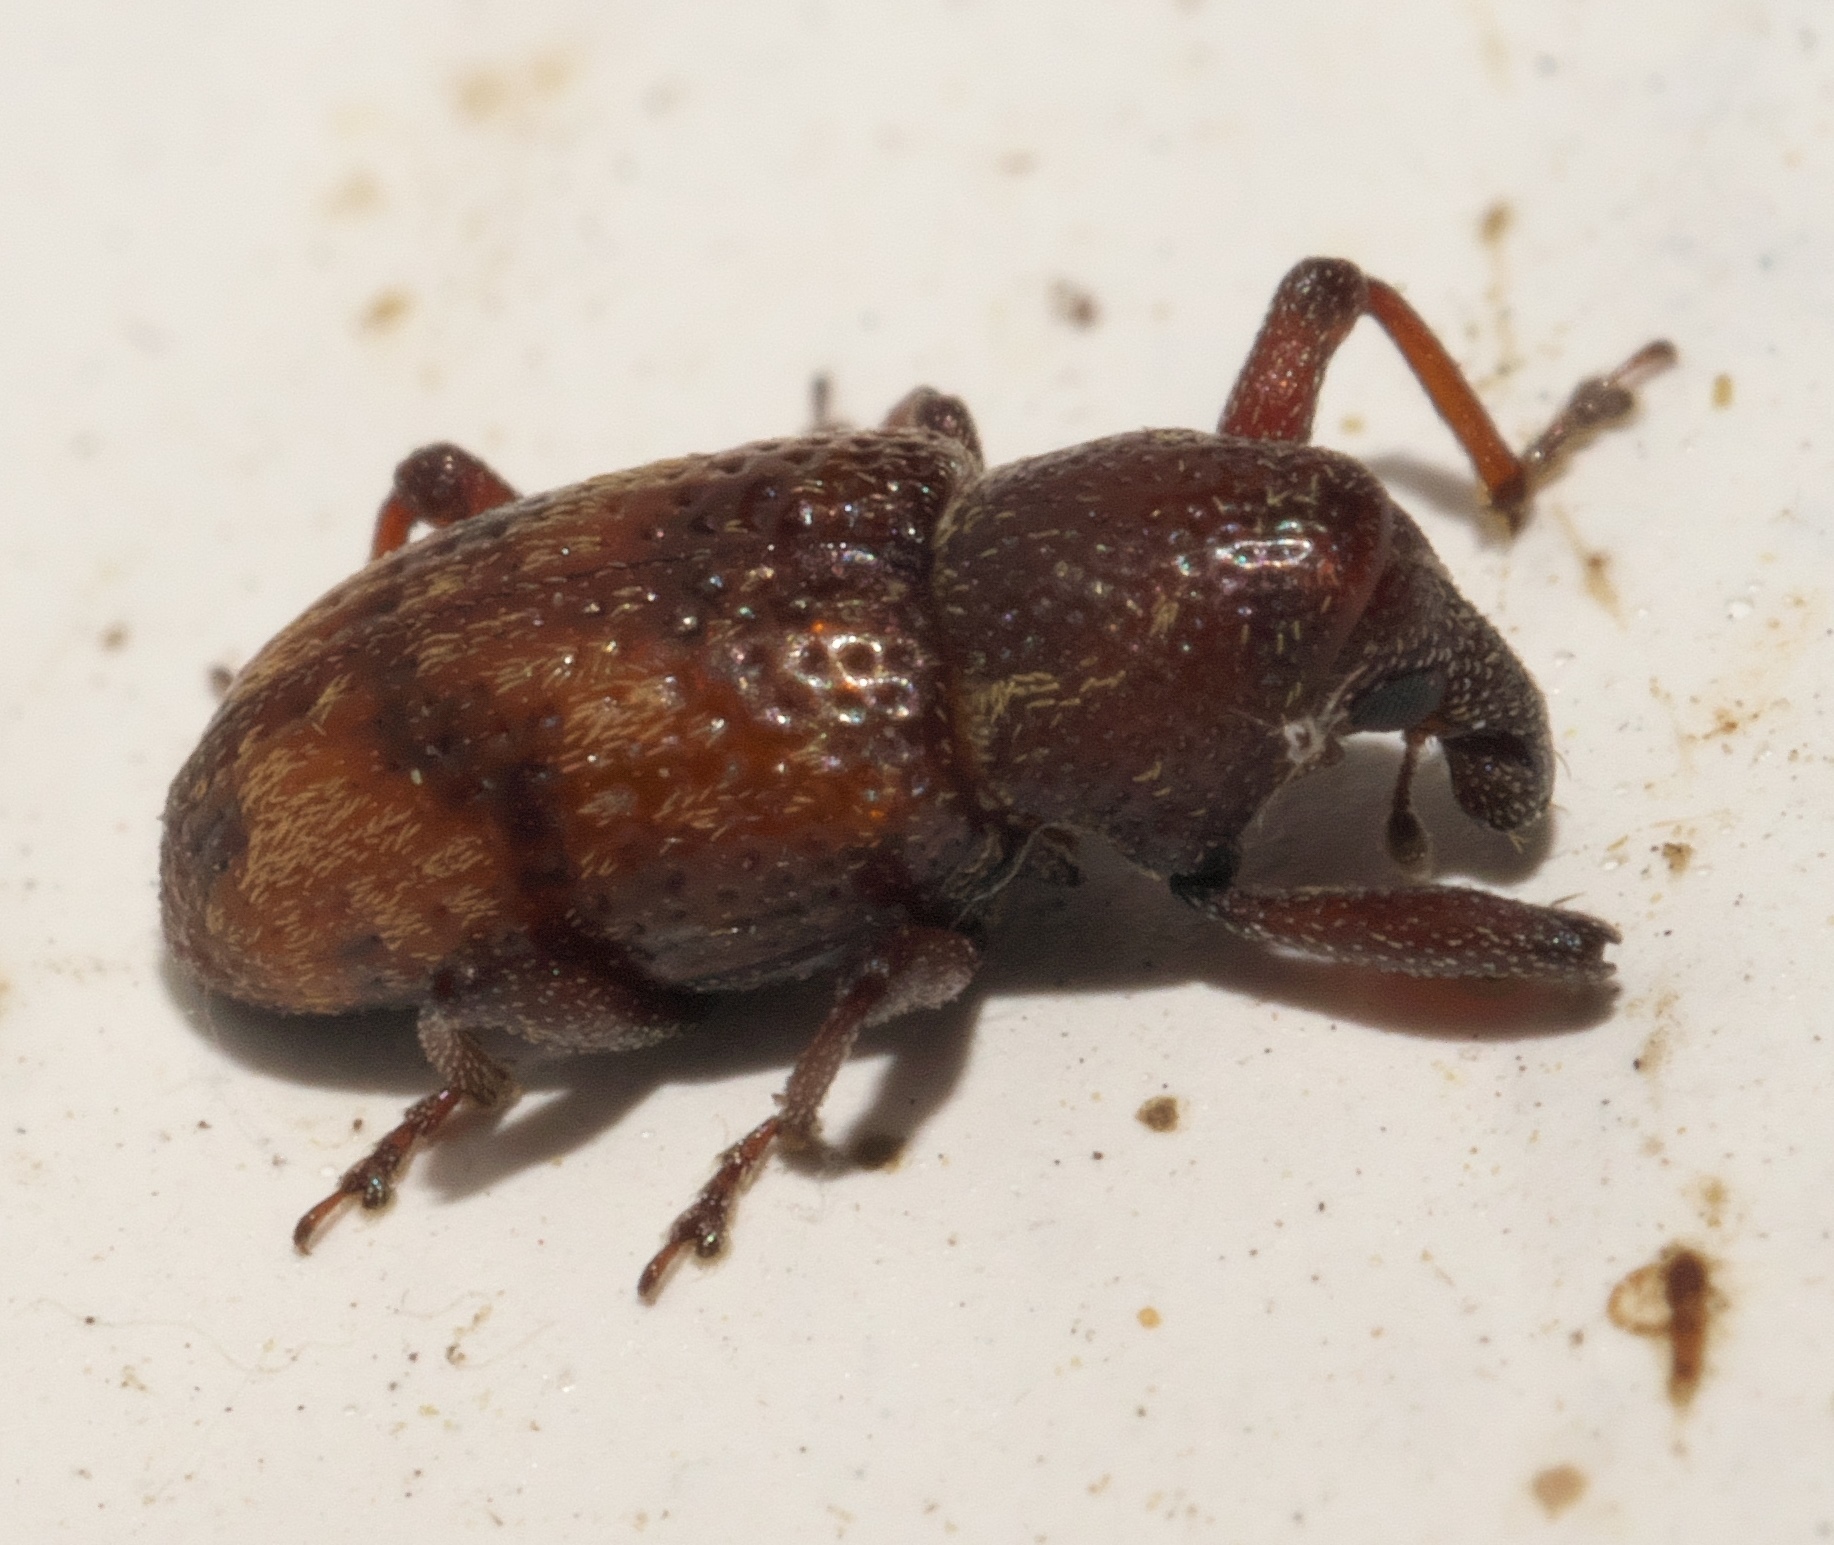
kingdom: Animalia
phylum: Arthropoda
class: Insecta
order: Coleoptera
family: Curculionidae
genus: Tyloderma
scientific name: Tyloderma sphaerocarpae
